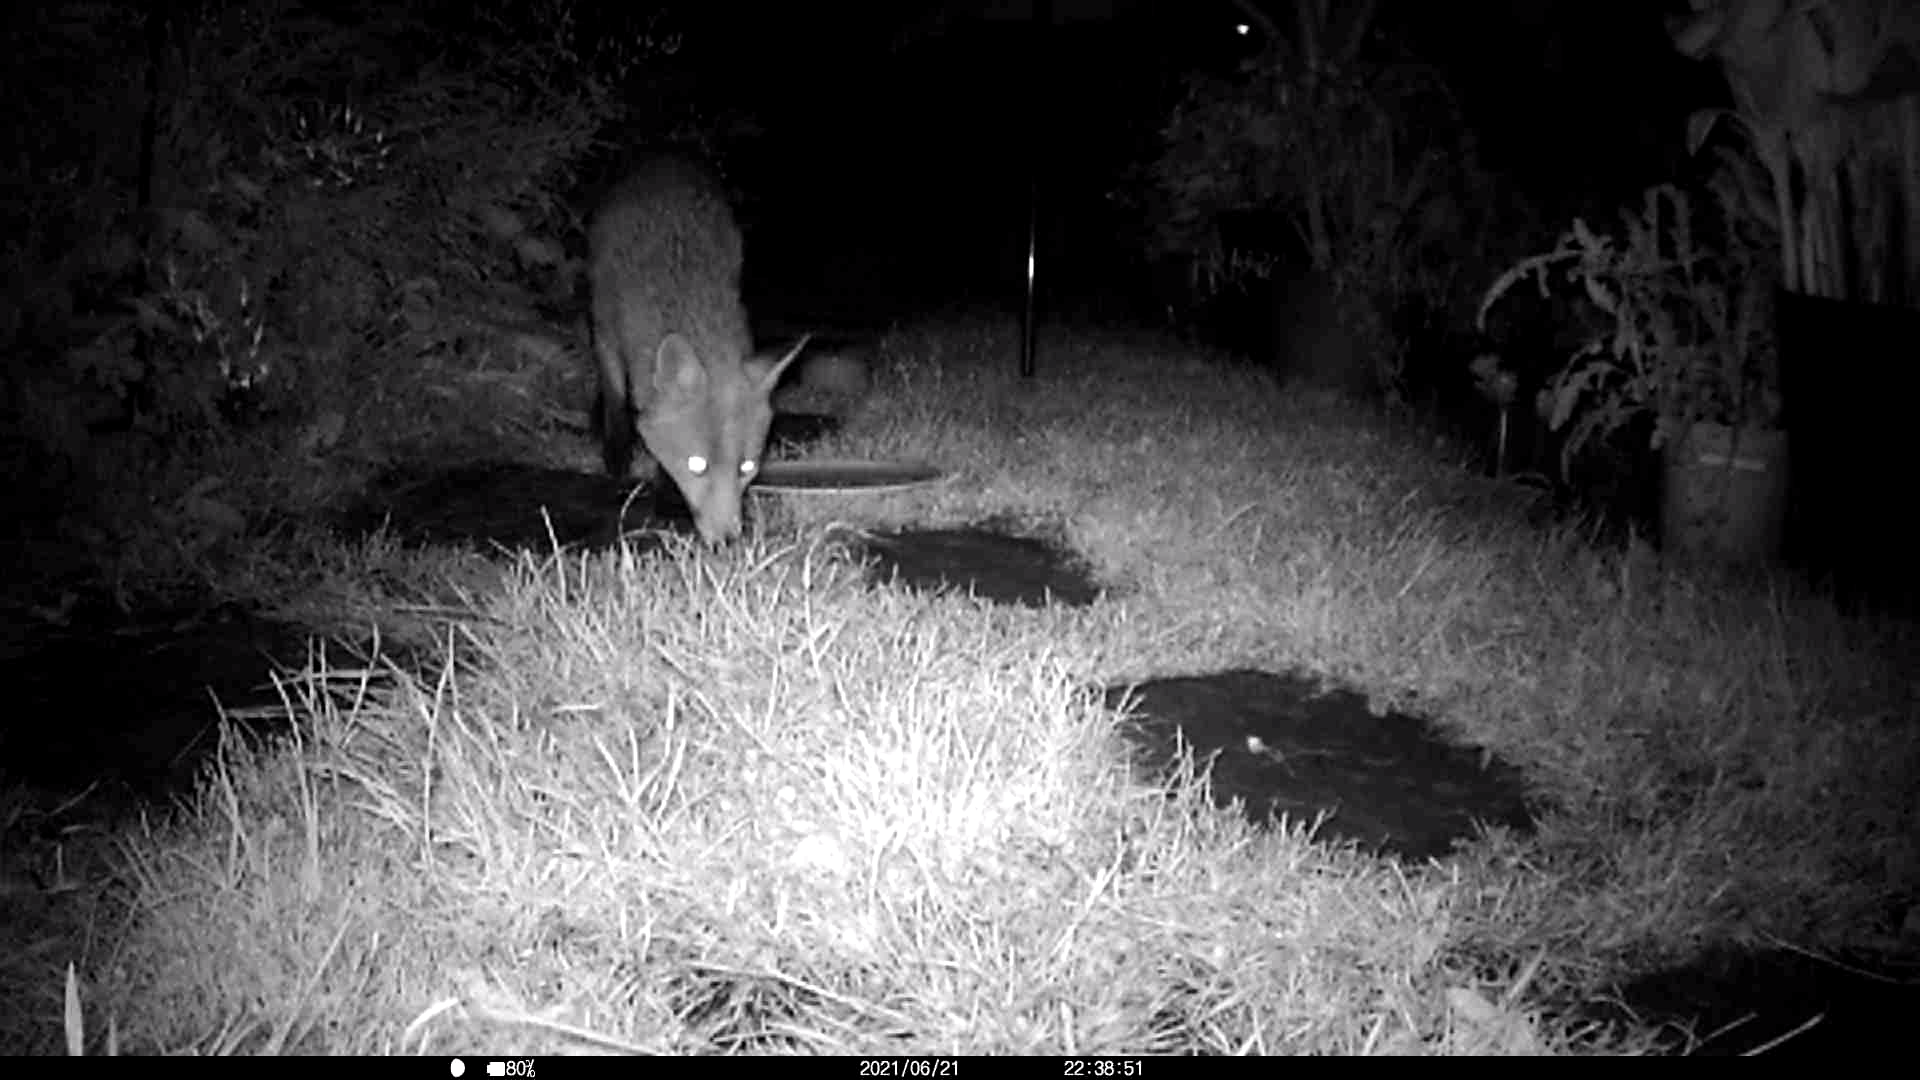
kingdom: Animalia
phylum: Chordata
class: Mammalia
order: Carnivora
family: Canidae
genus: Vulpes
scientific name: Vulpes vulpes
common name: Red fox
